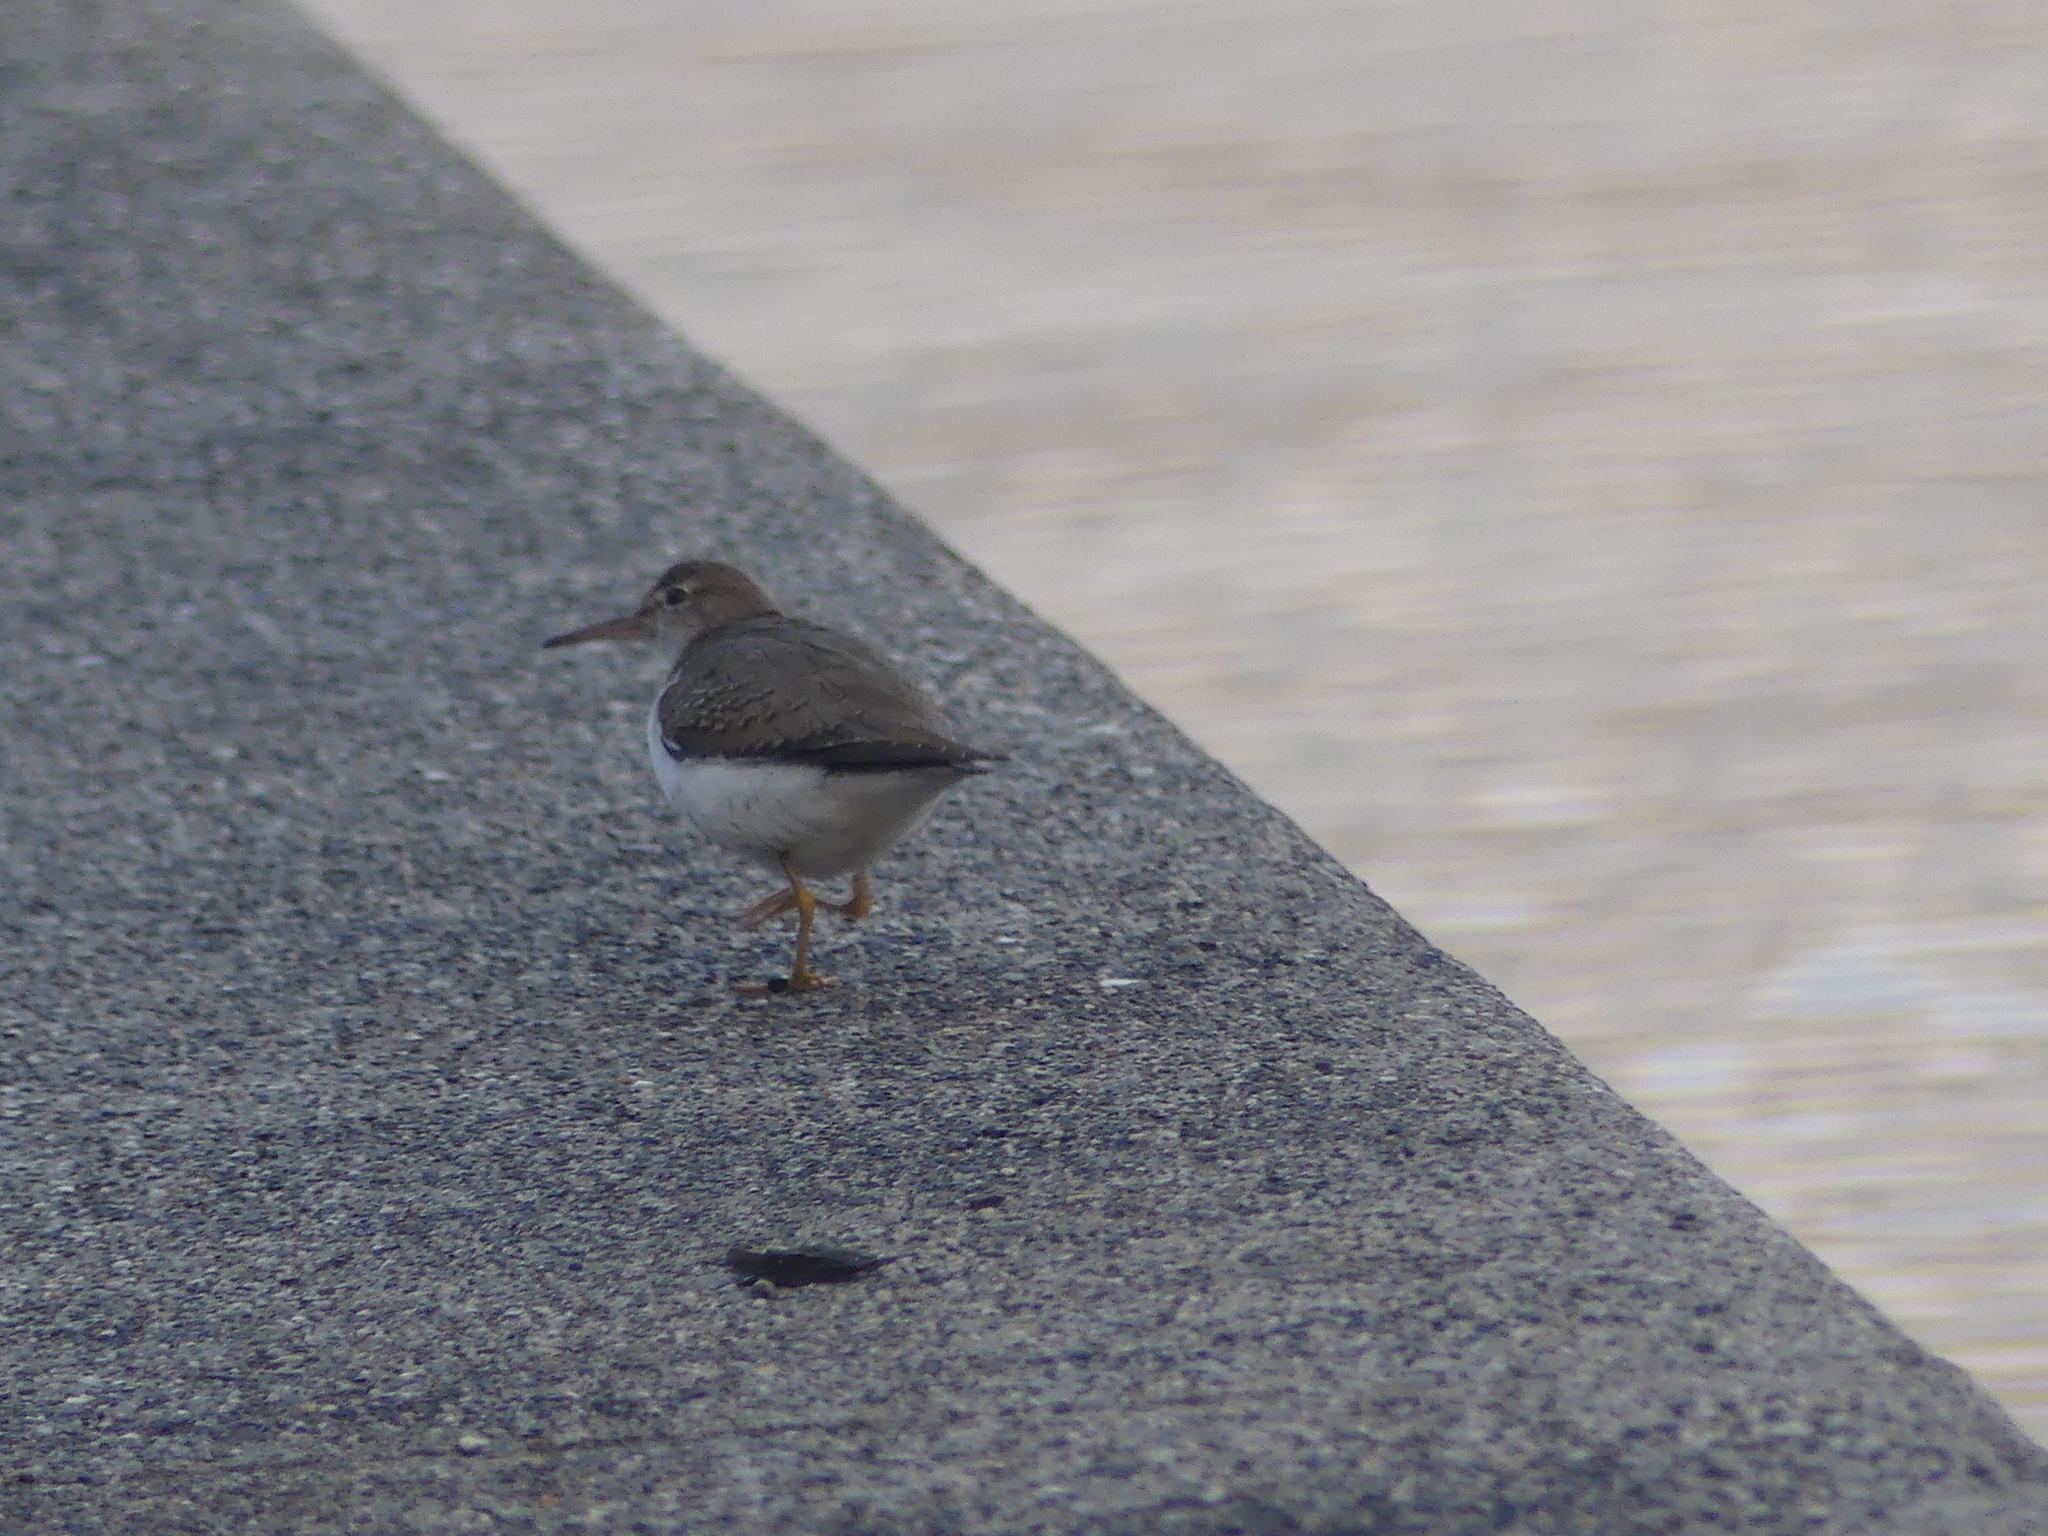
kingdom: Animalia
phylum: Chordata
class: Aves
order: Charadriiformes
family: Scolopacidae
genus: Actitis
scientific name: Actitis macularius
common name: Spotted sandpiper
